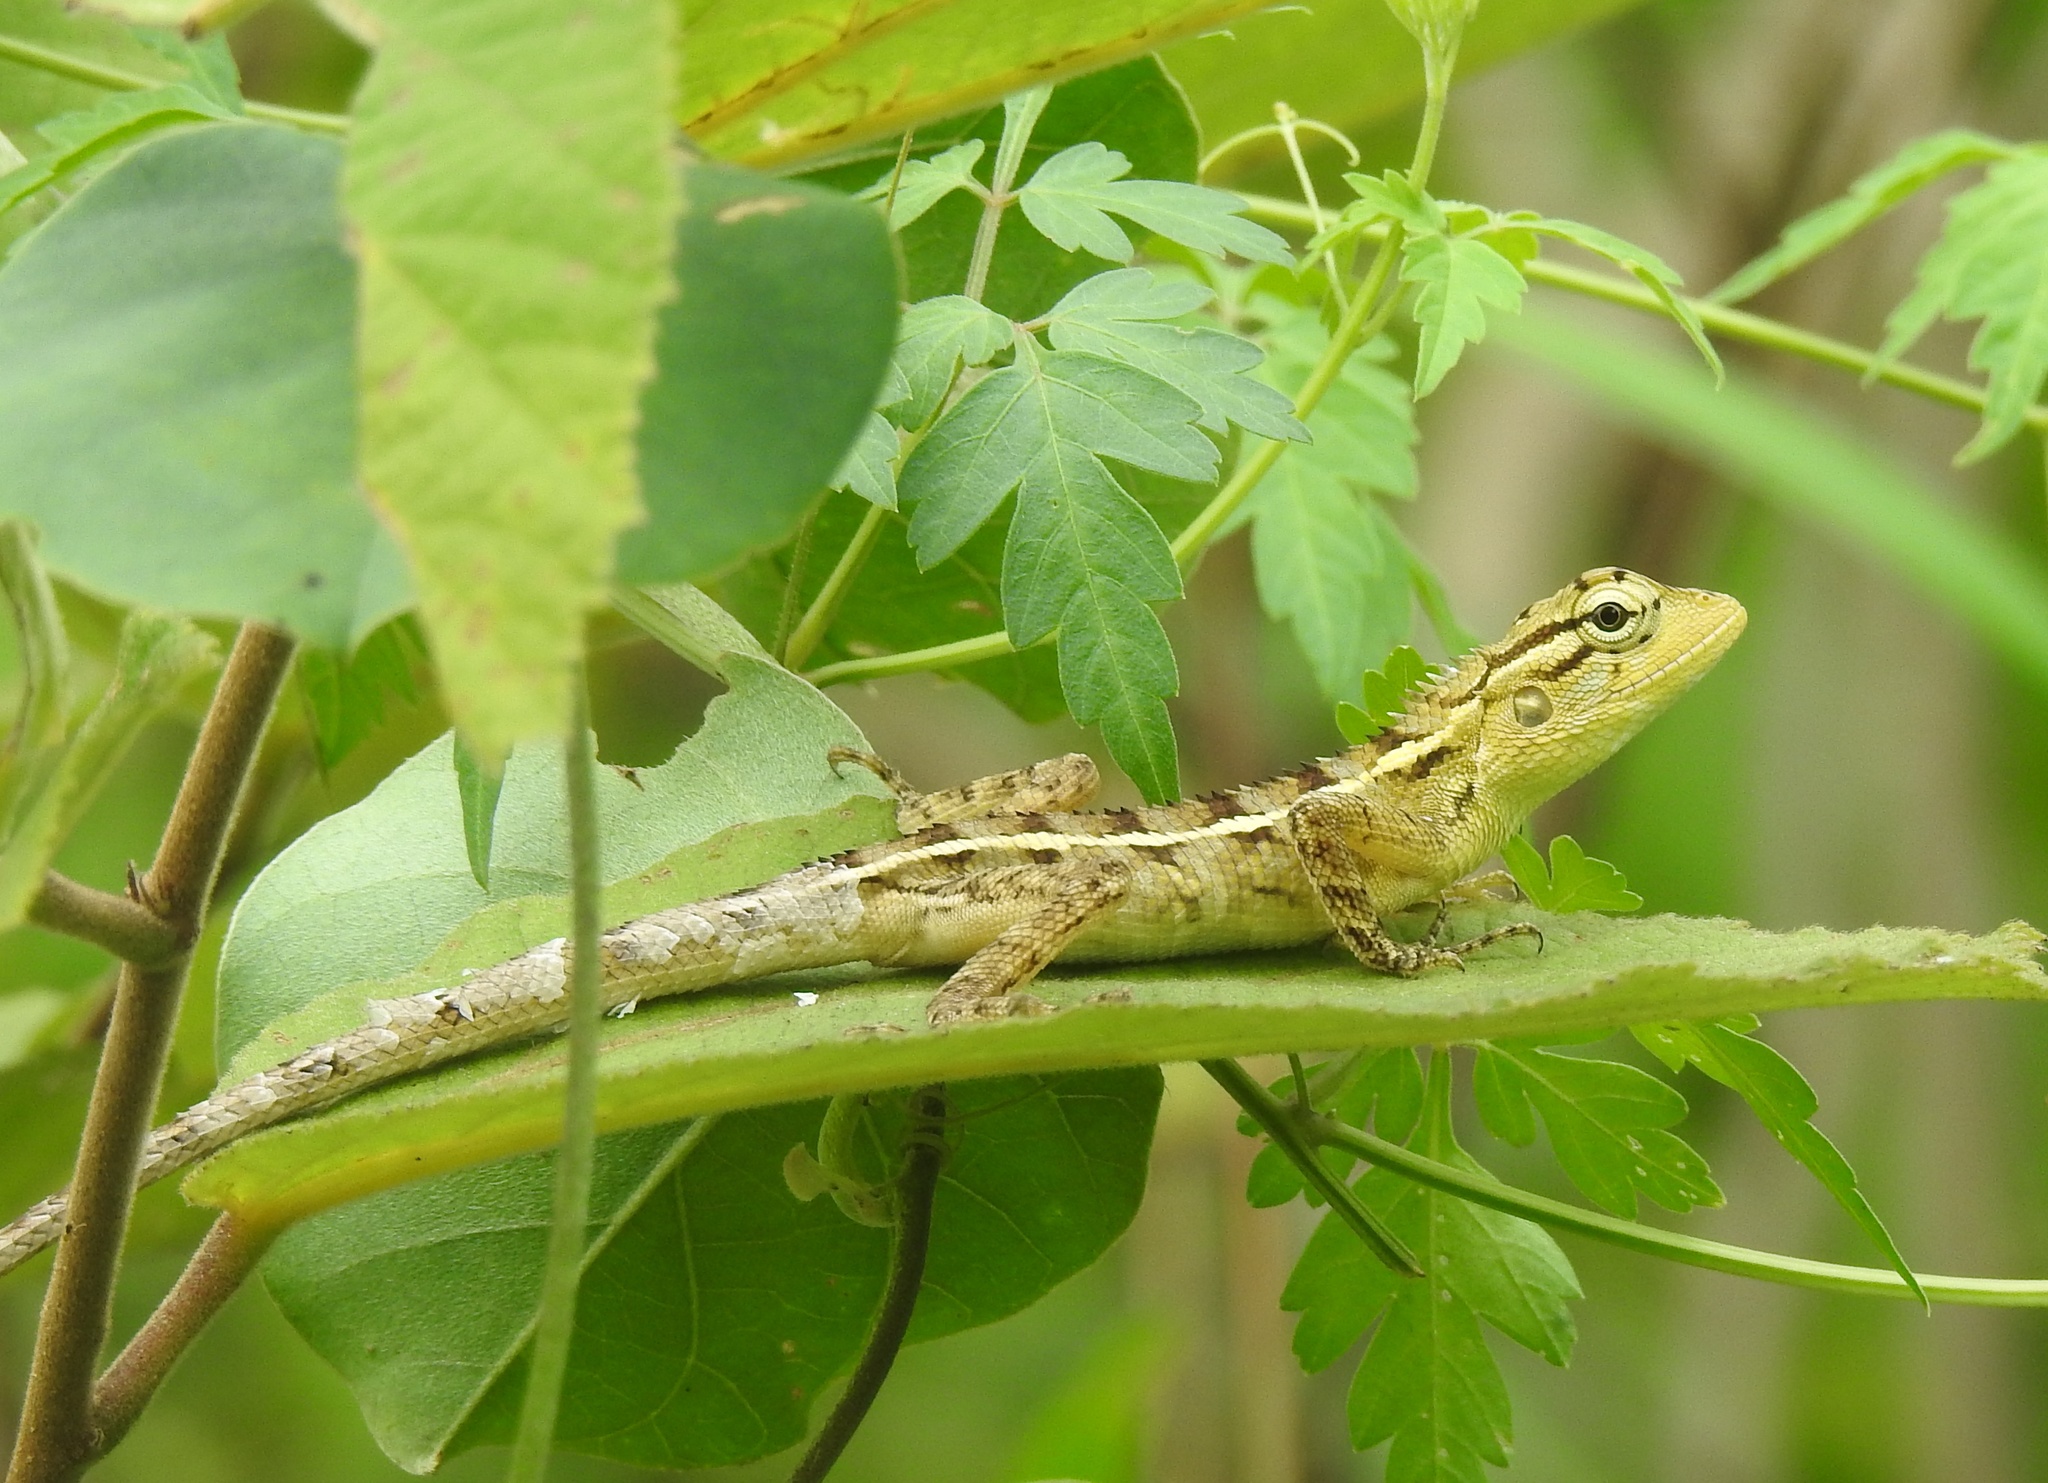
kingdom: Animalia
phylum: Chordata
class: Squamata
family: Agamidae
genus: Calotes
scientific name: Calotes versicolor
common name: Oriental garden lizard
